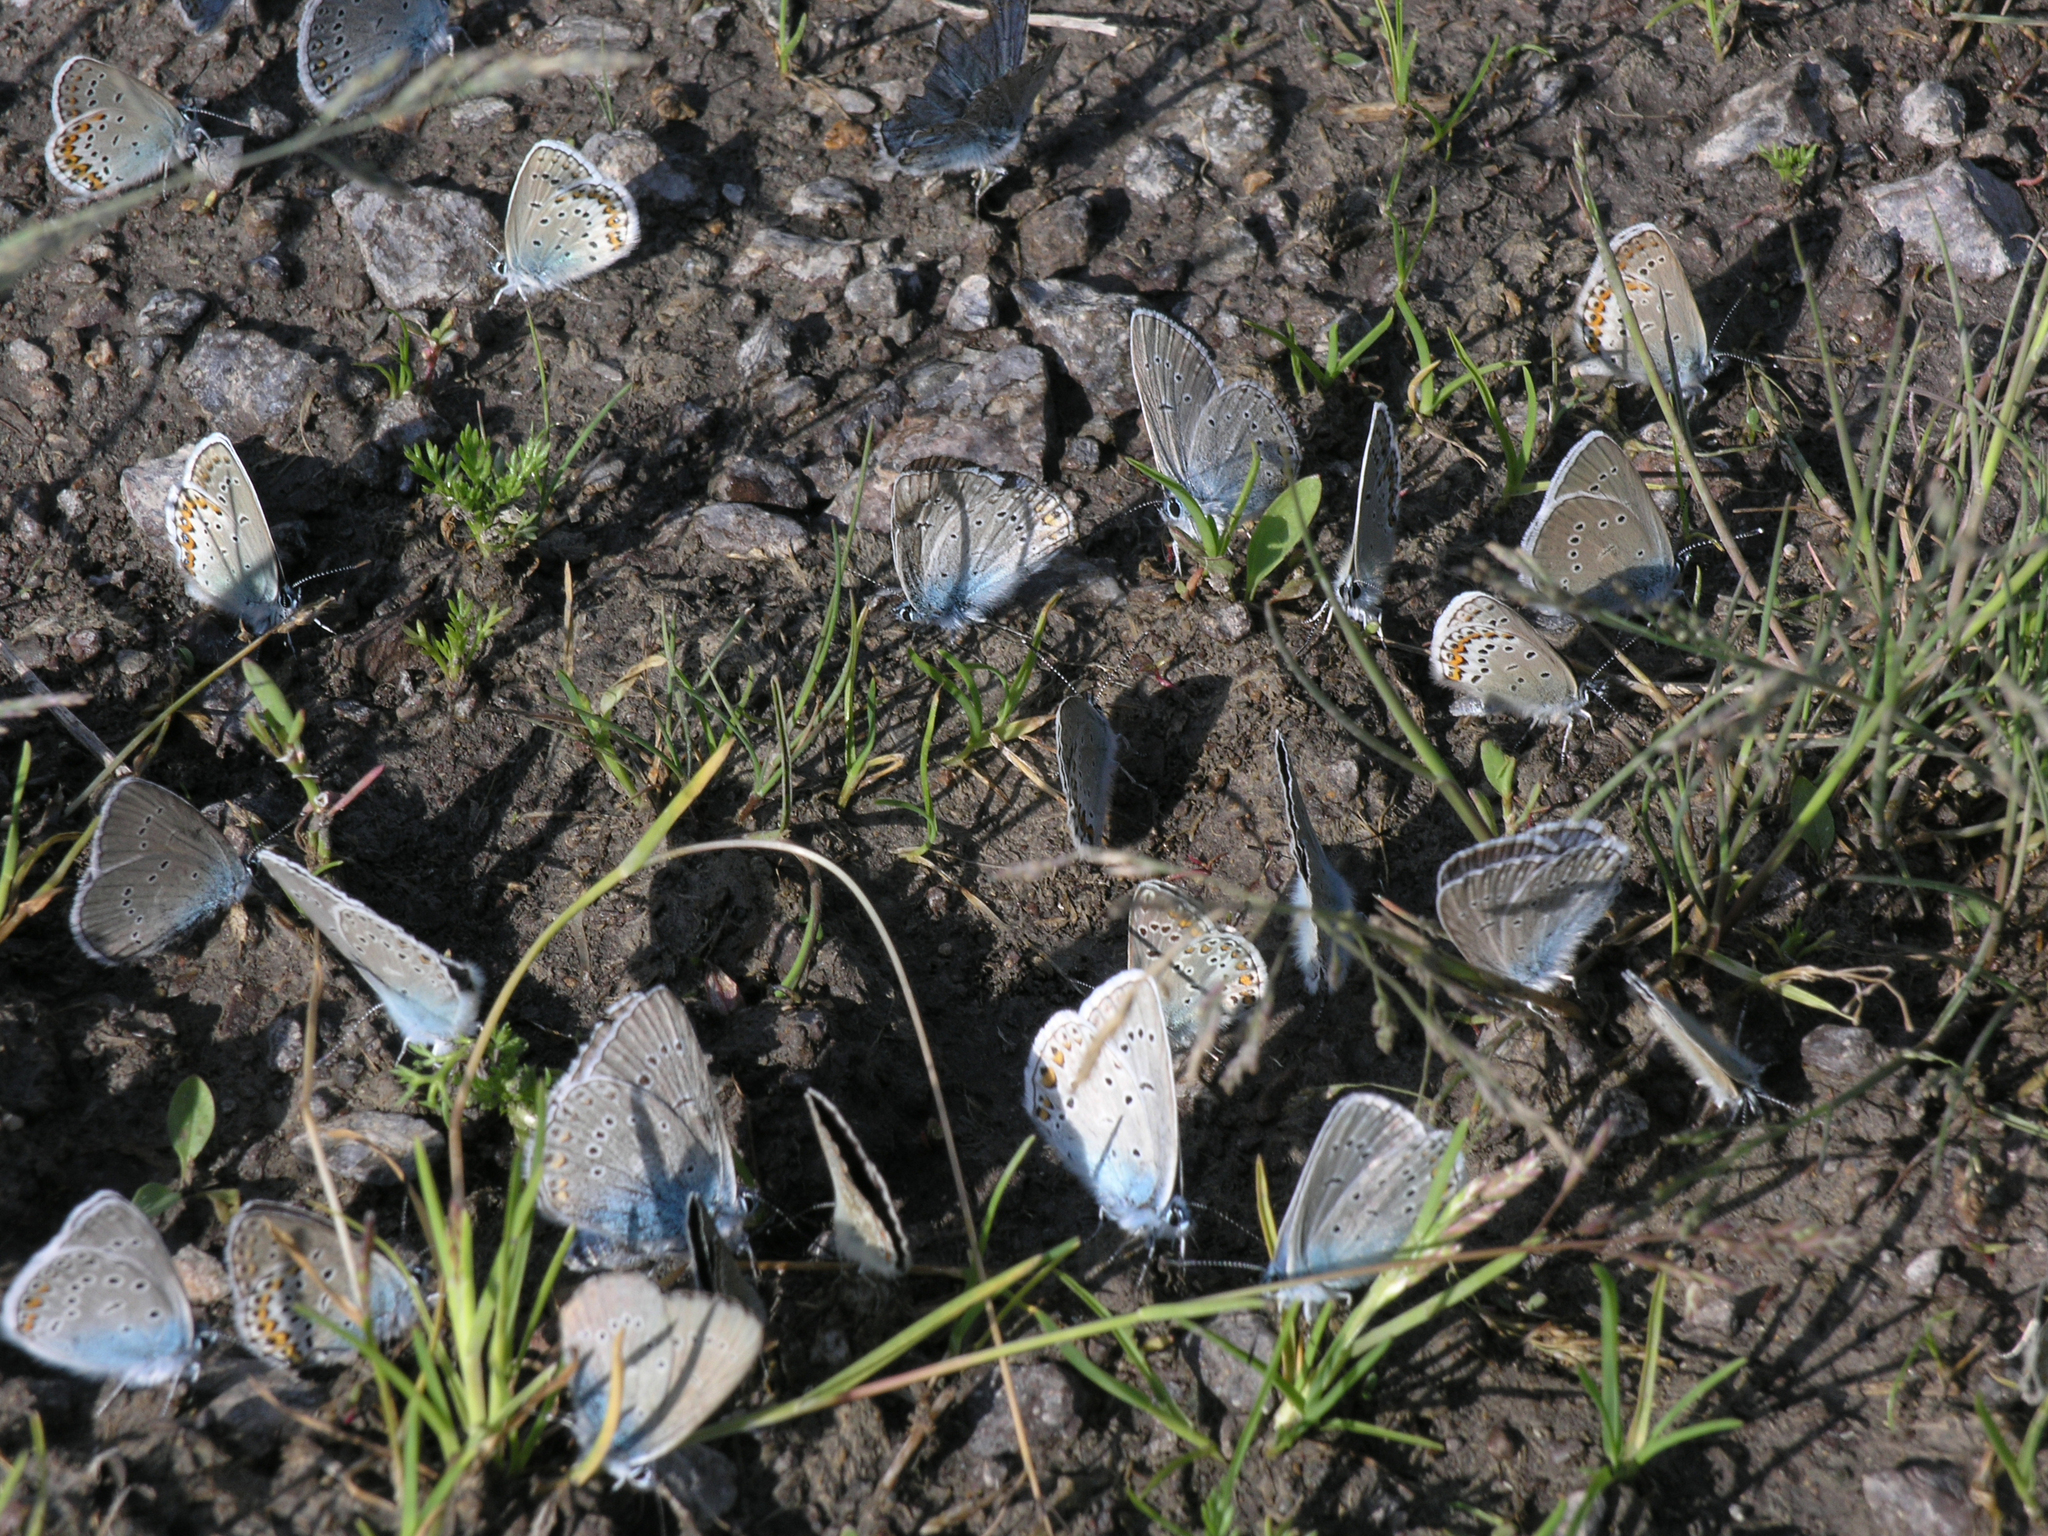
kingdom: Animalia
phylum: Arthropoda
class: Insecta
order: Lepidoptera
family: Lycaenidae
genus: Plebejus
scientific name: Plebejus amanda
